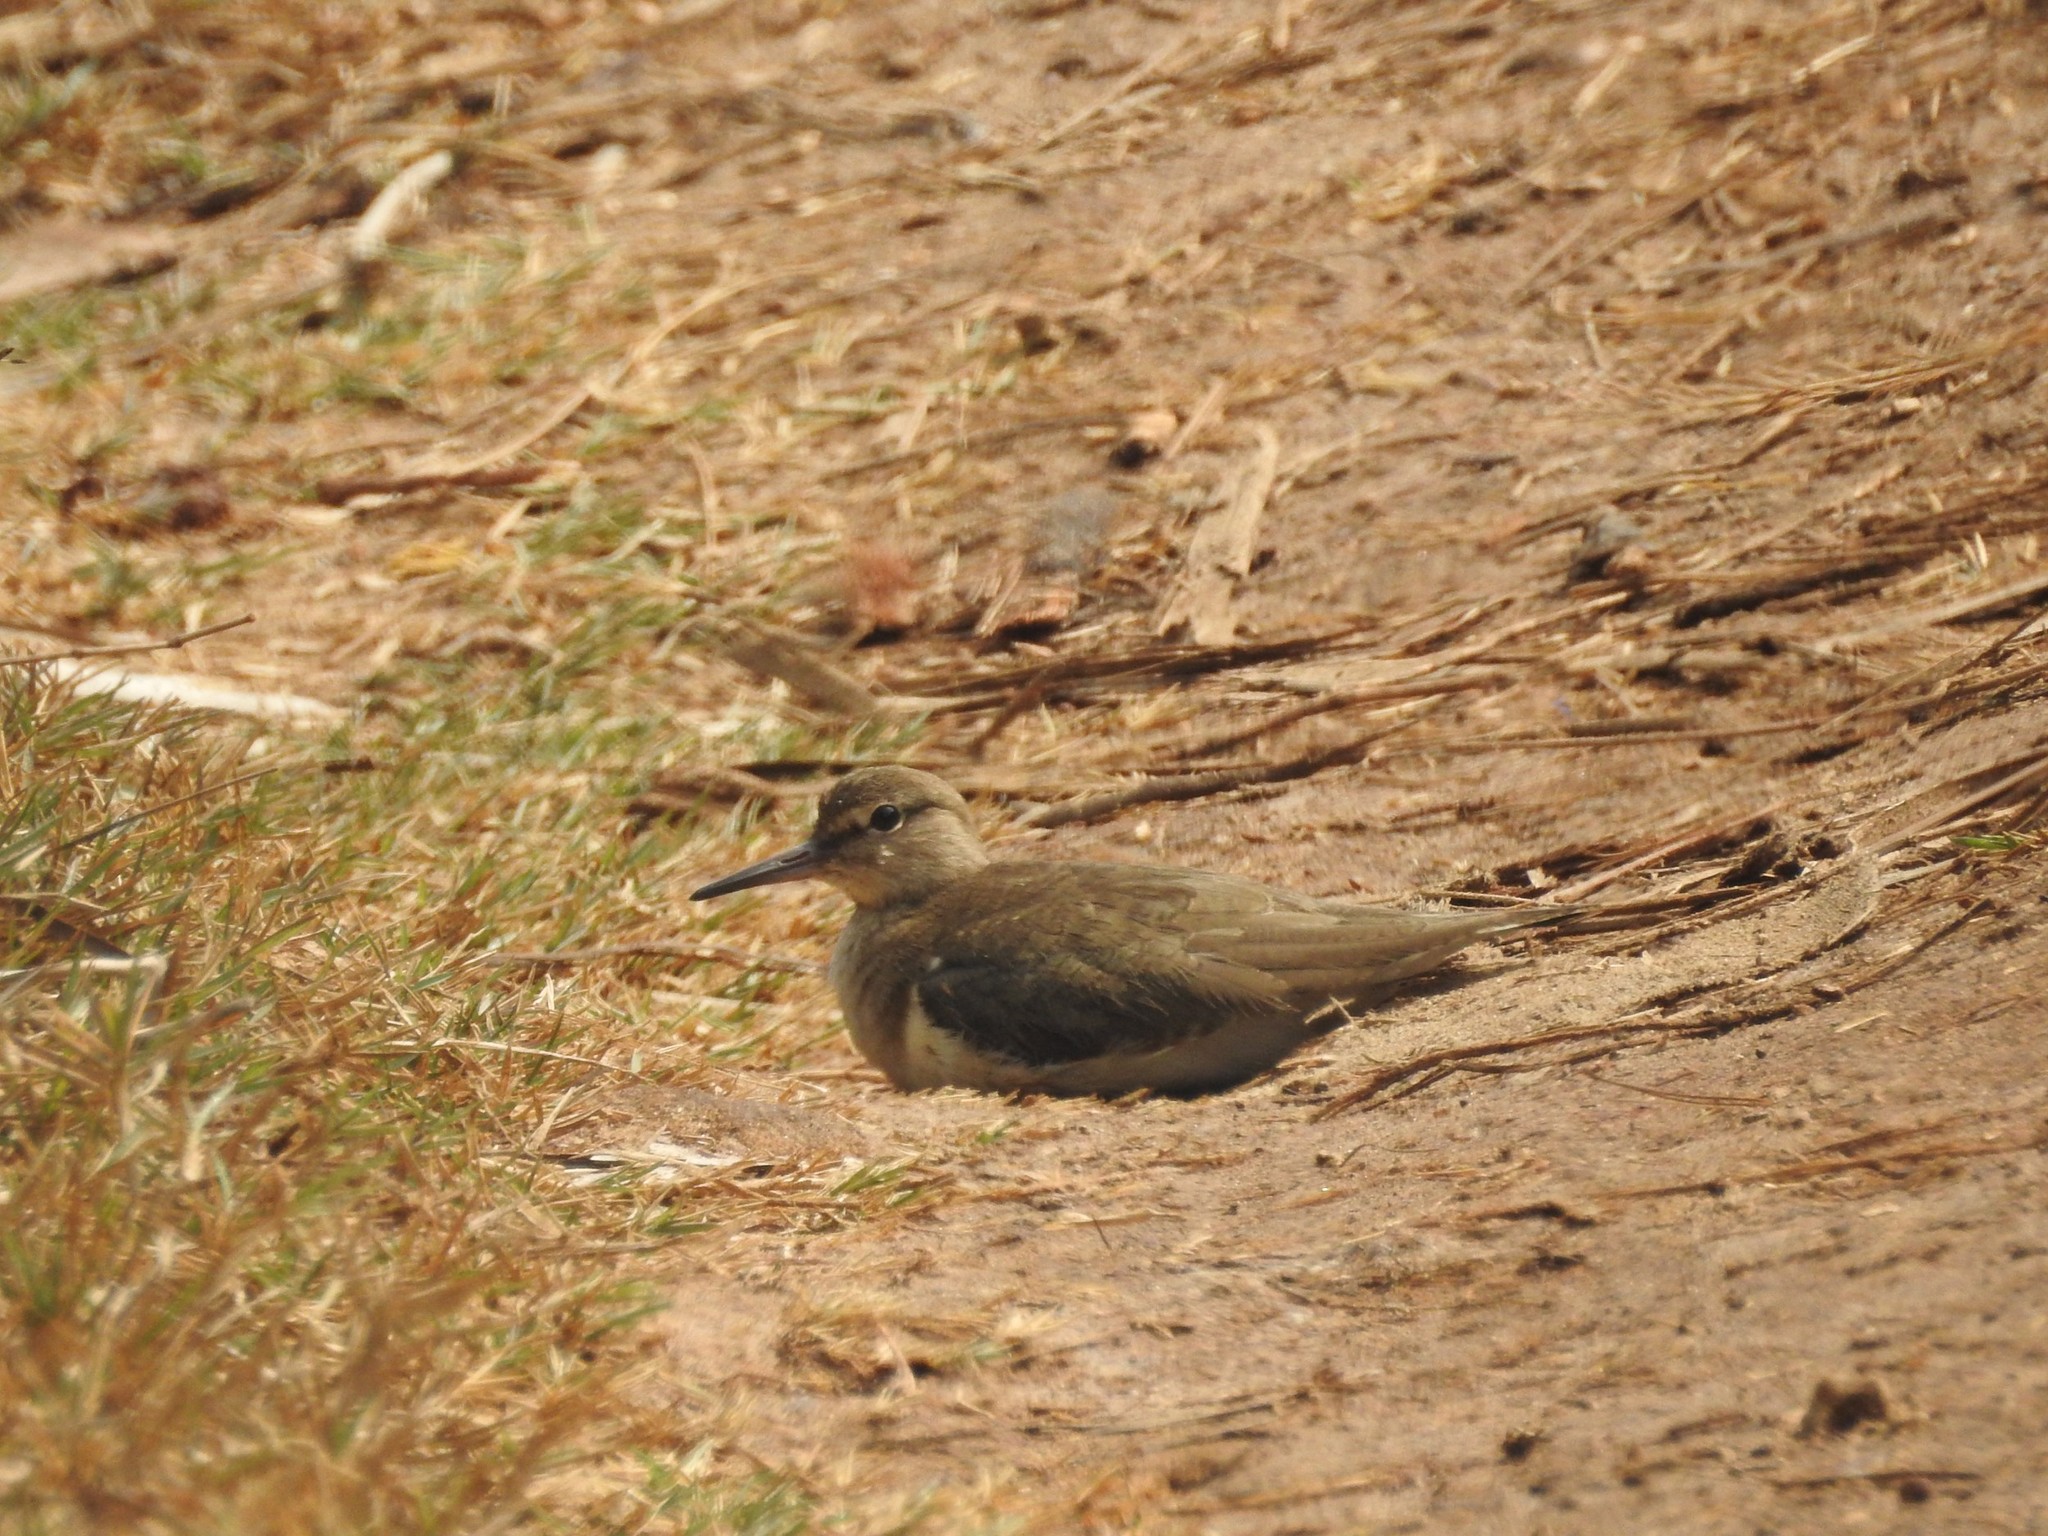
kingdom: Animalia
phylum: Chordata
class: Aves
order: Charadriiformes
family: Scolopacidae
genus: Actitis
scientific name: Actitis hypoleucos
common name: Common sandpiper
